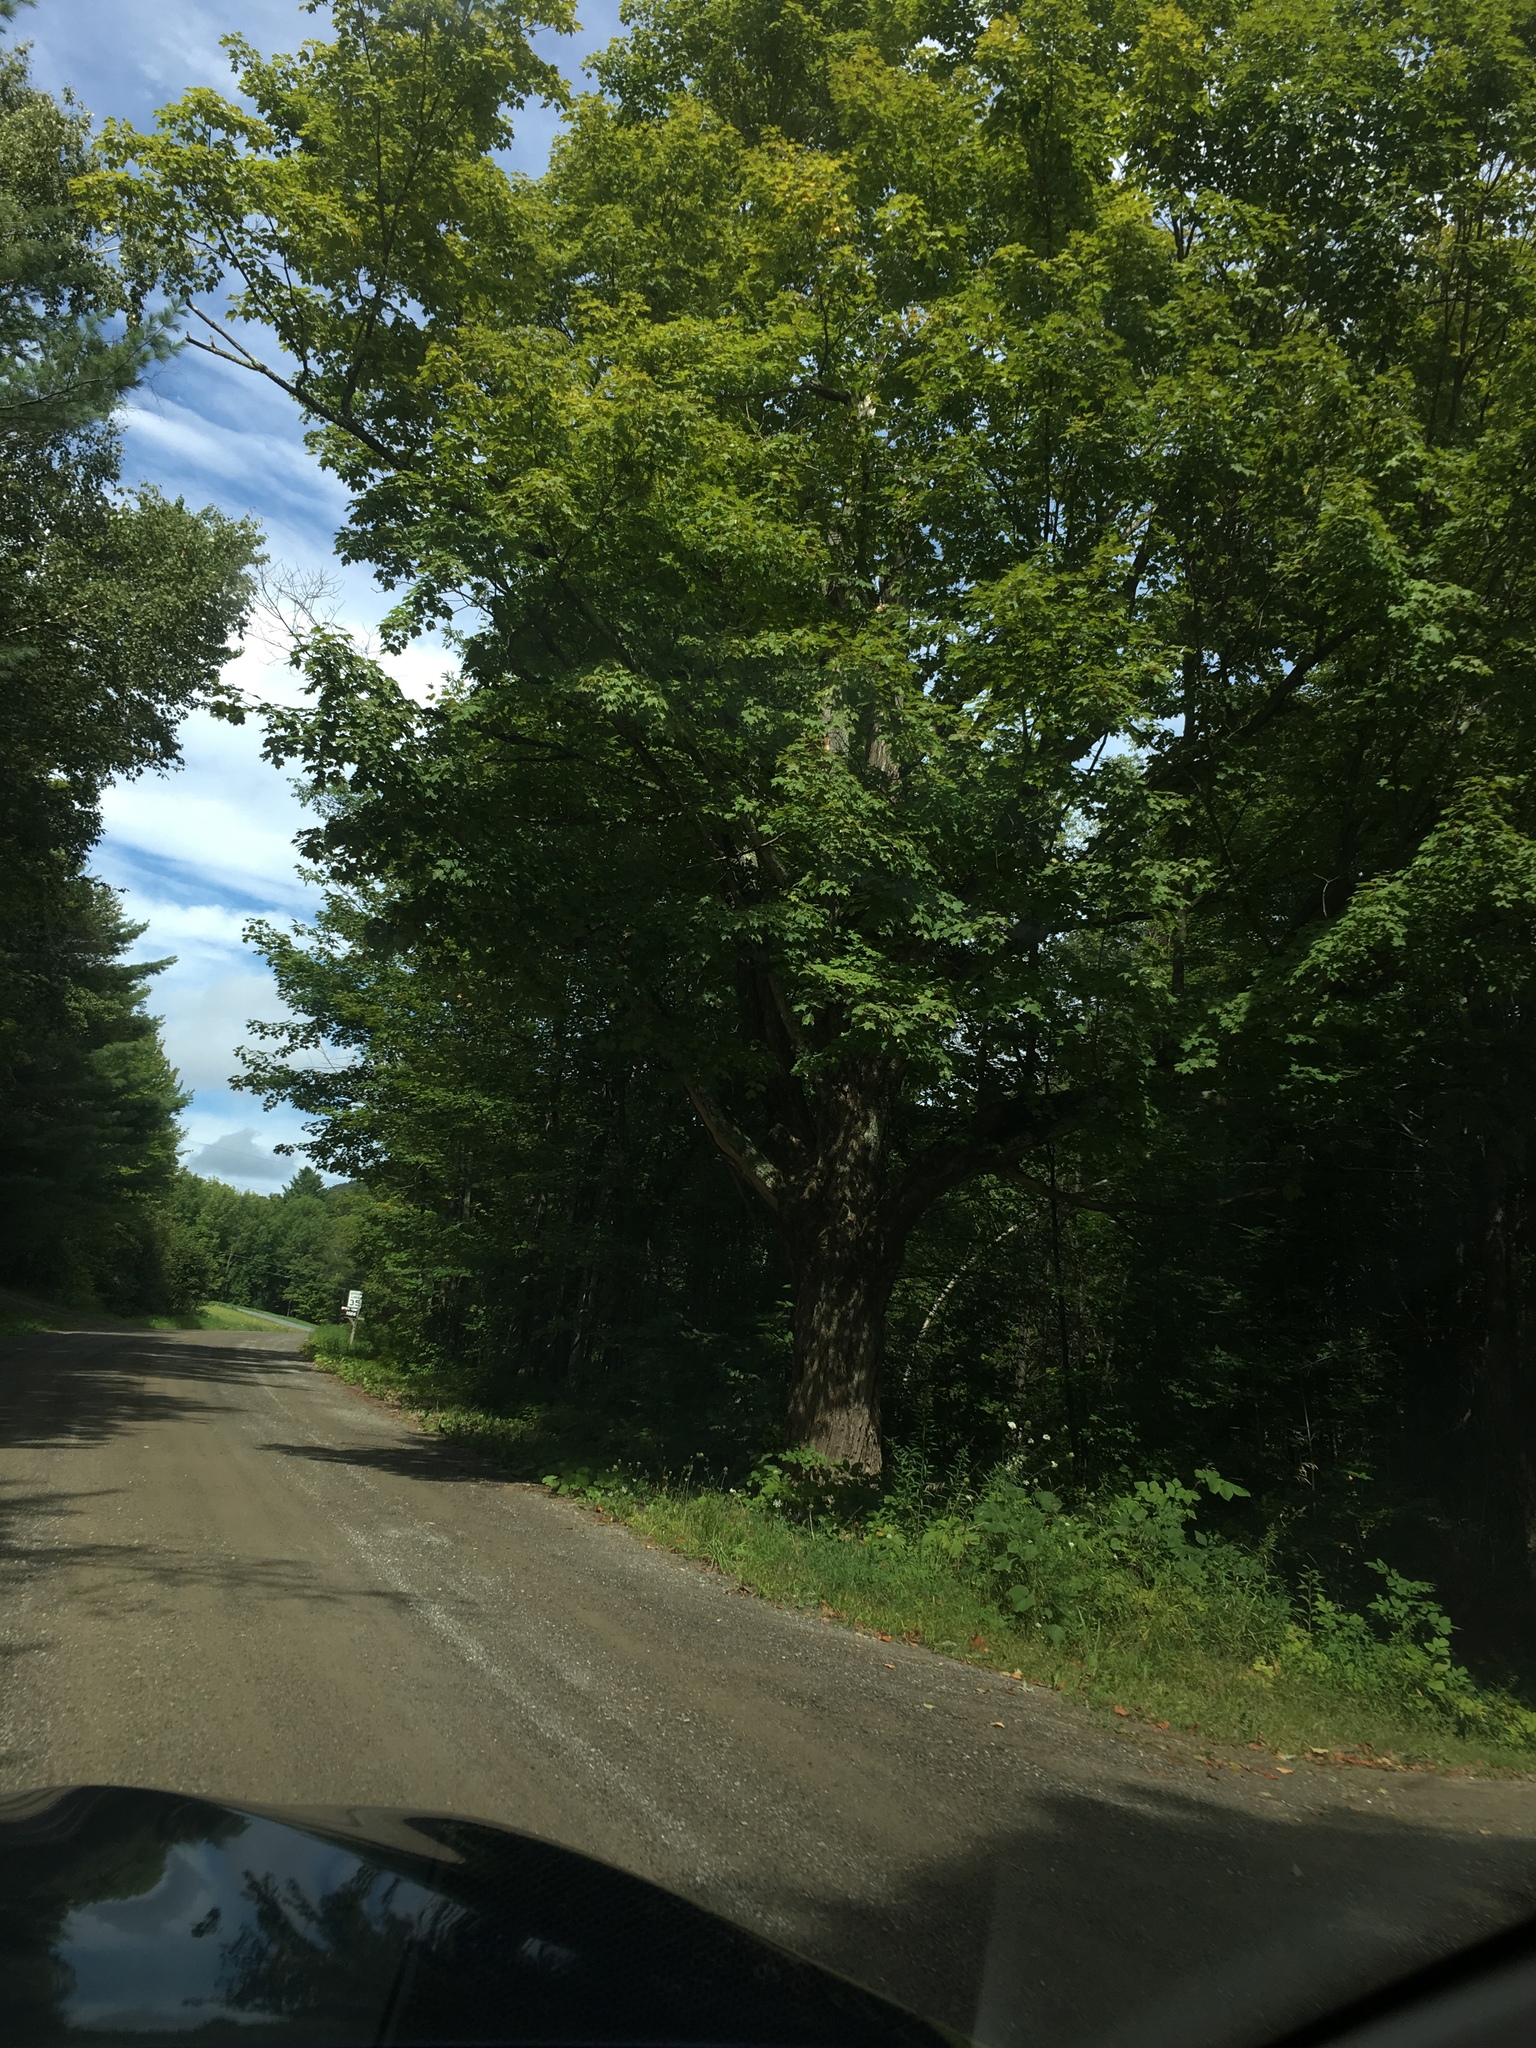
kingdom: Plantae
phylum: Tracheophyta
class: Magnoliopsida
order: Sapindales
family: Sapindaceae
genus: Acer
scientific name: Acer saccharum
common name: Sugar maple
